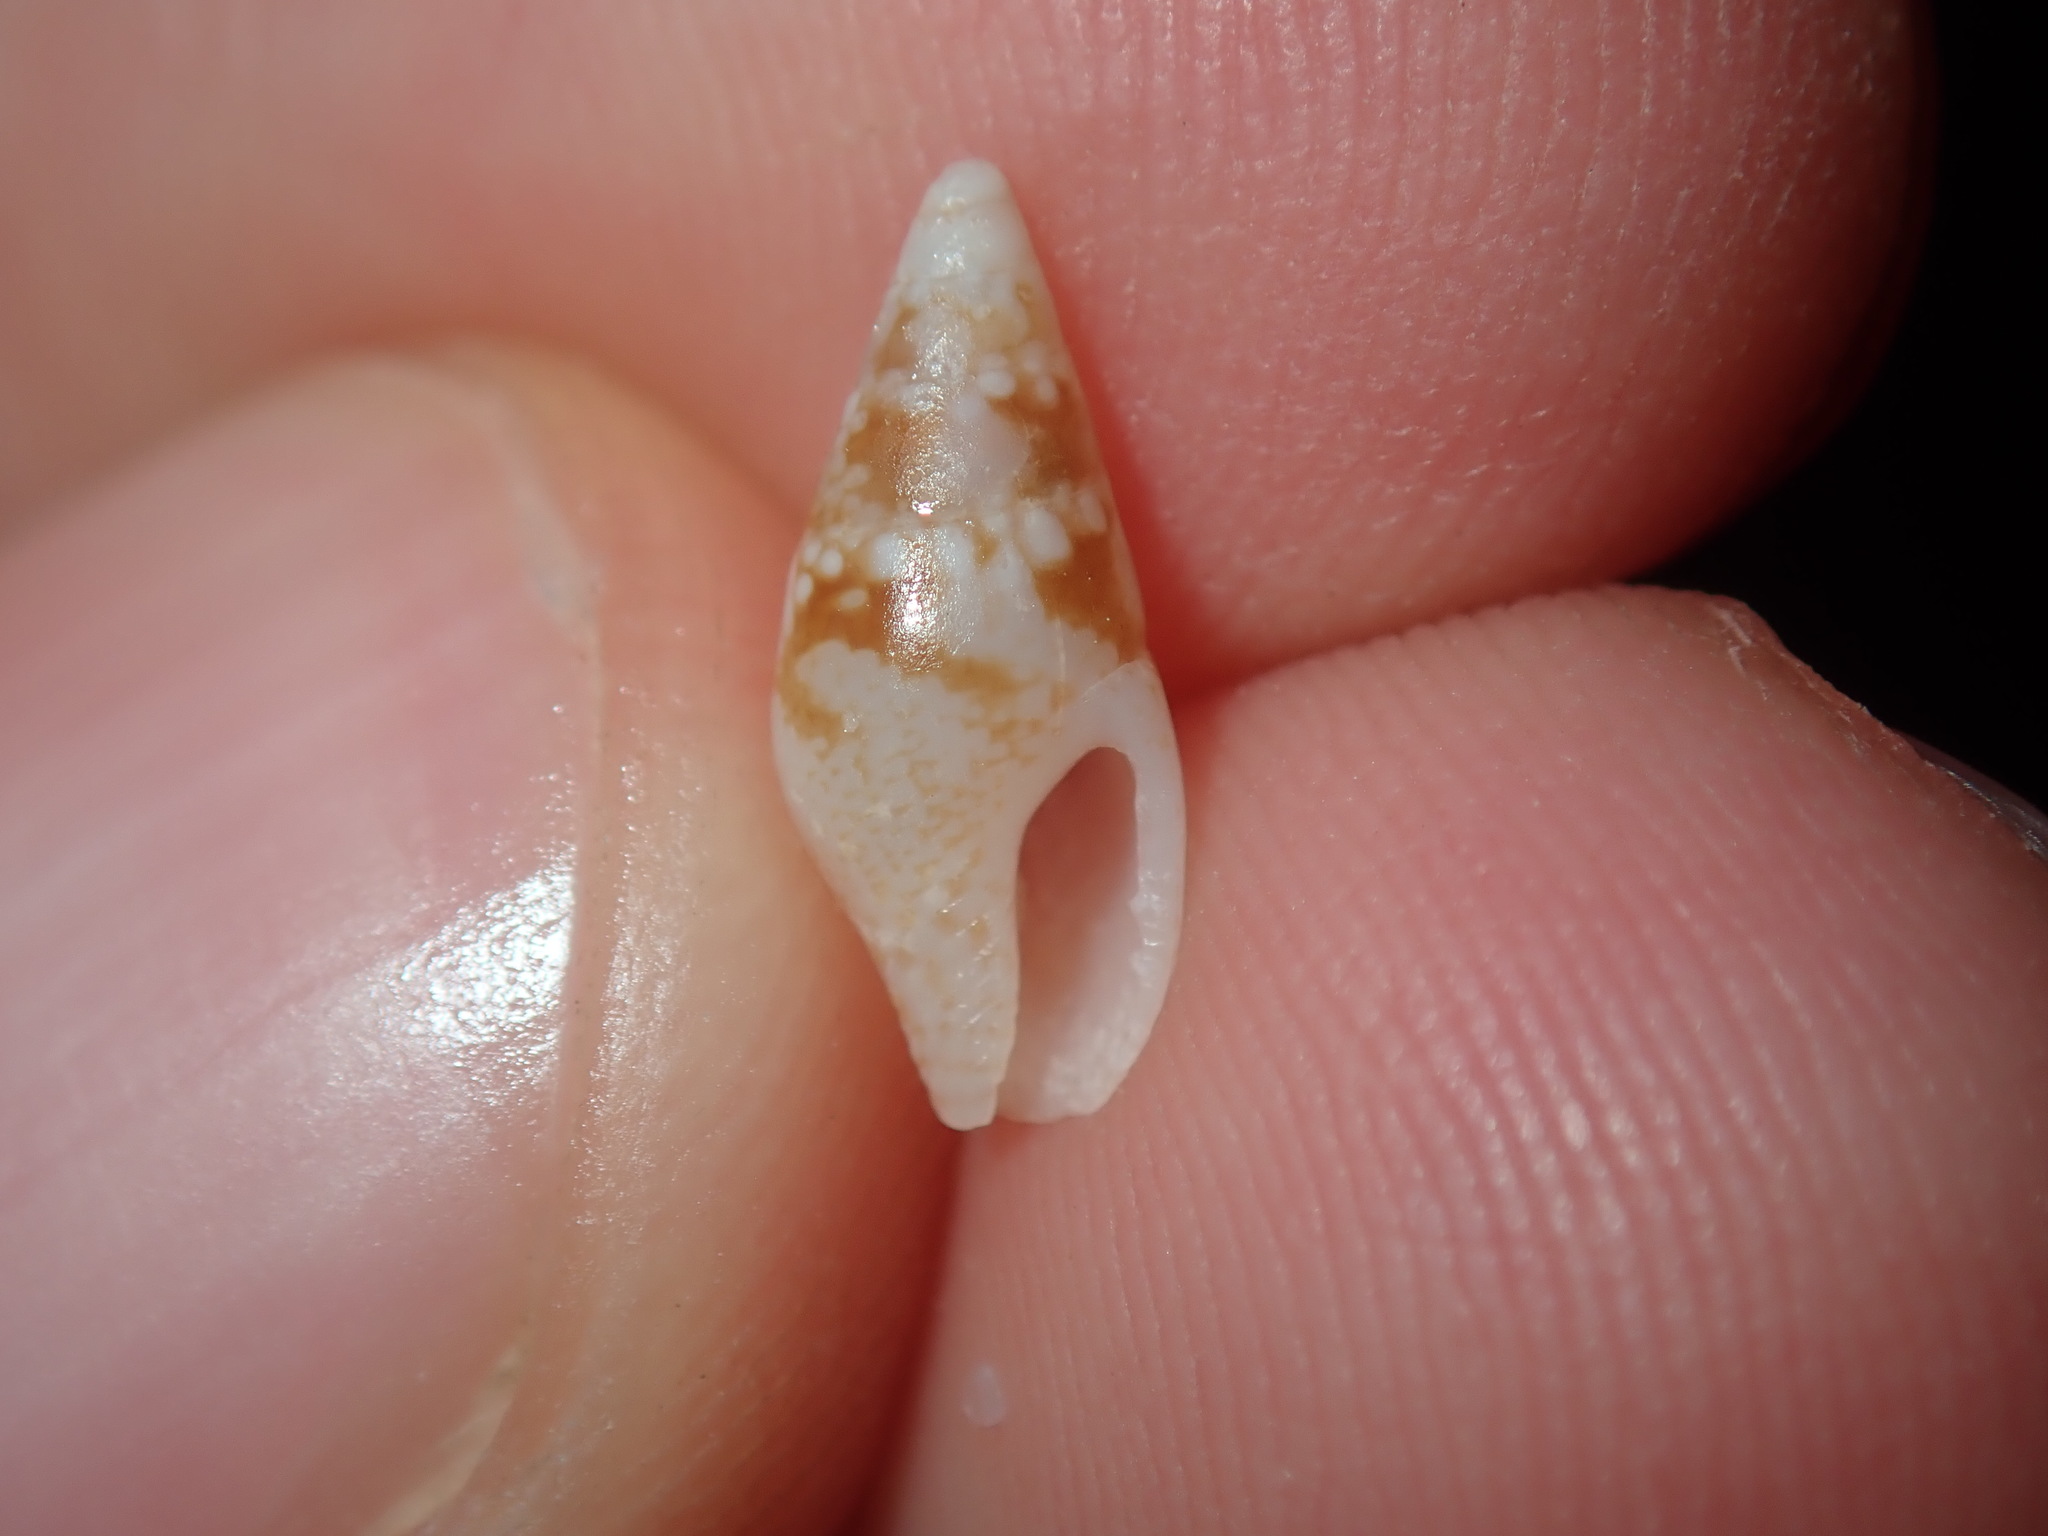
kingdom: Animalia
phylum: Mollusca
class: Gastropoda
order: Neogastropoda
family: Columbellidae
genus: Mitrella
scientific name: Mitrella tayloriana
